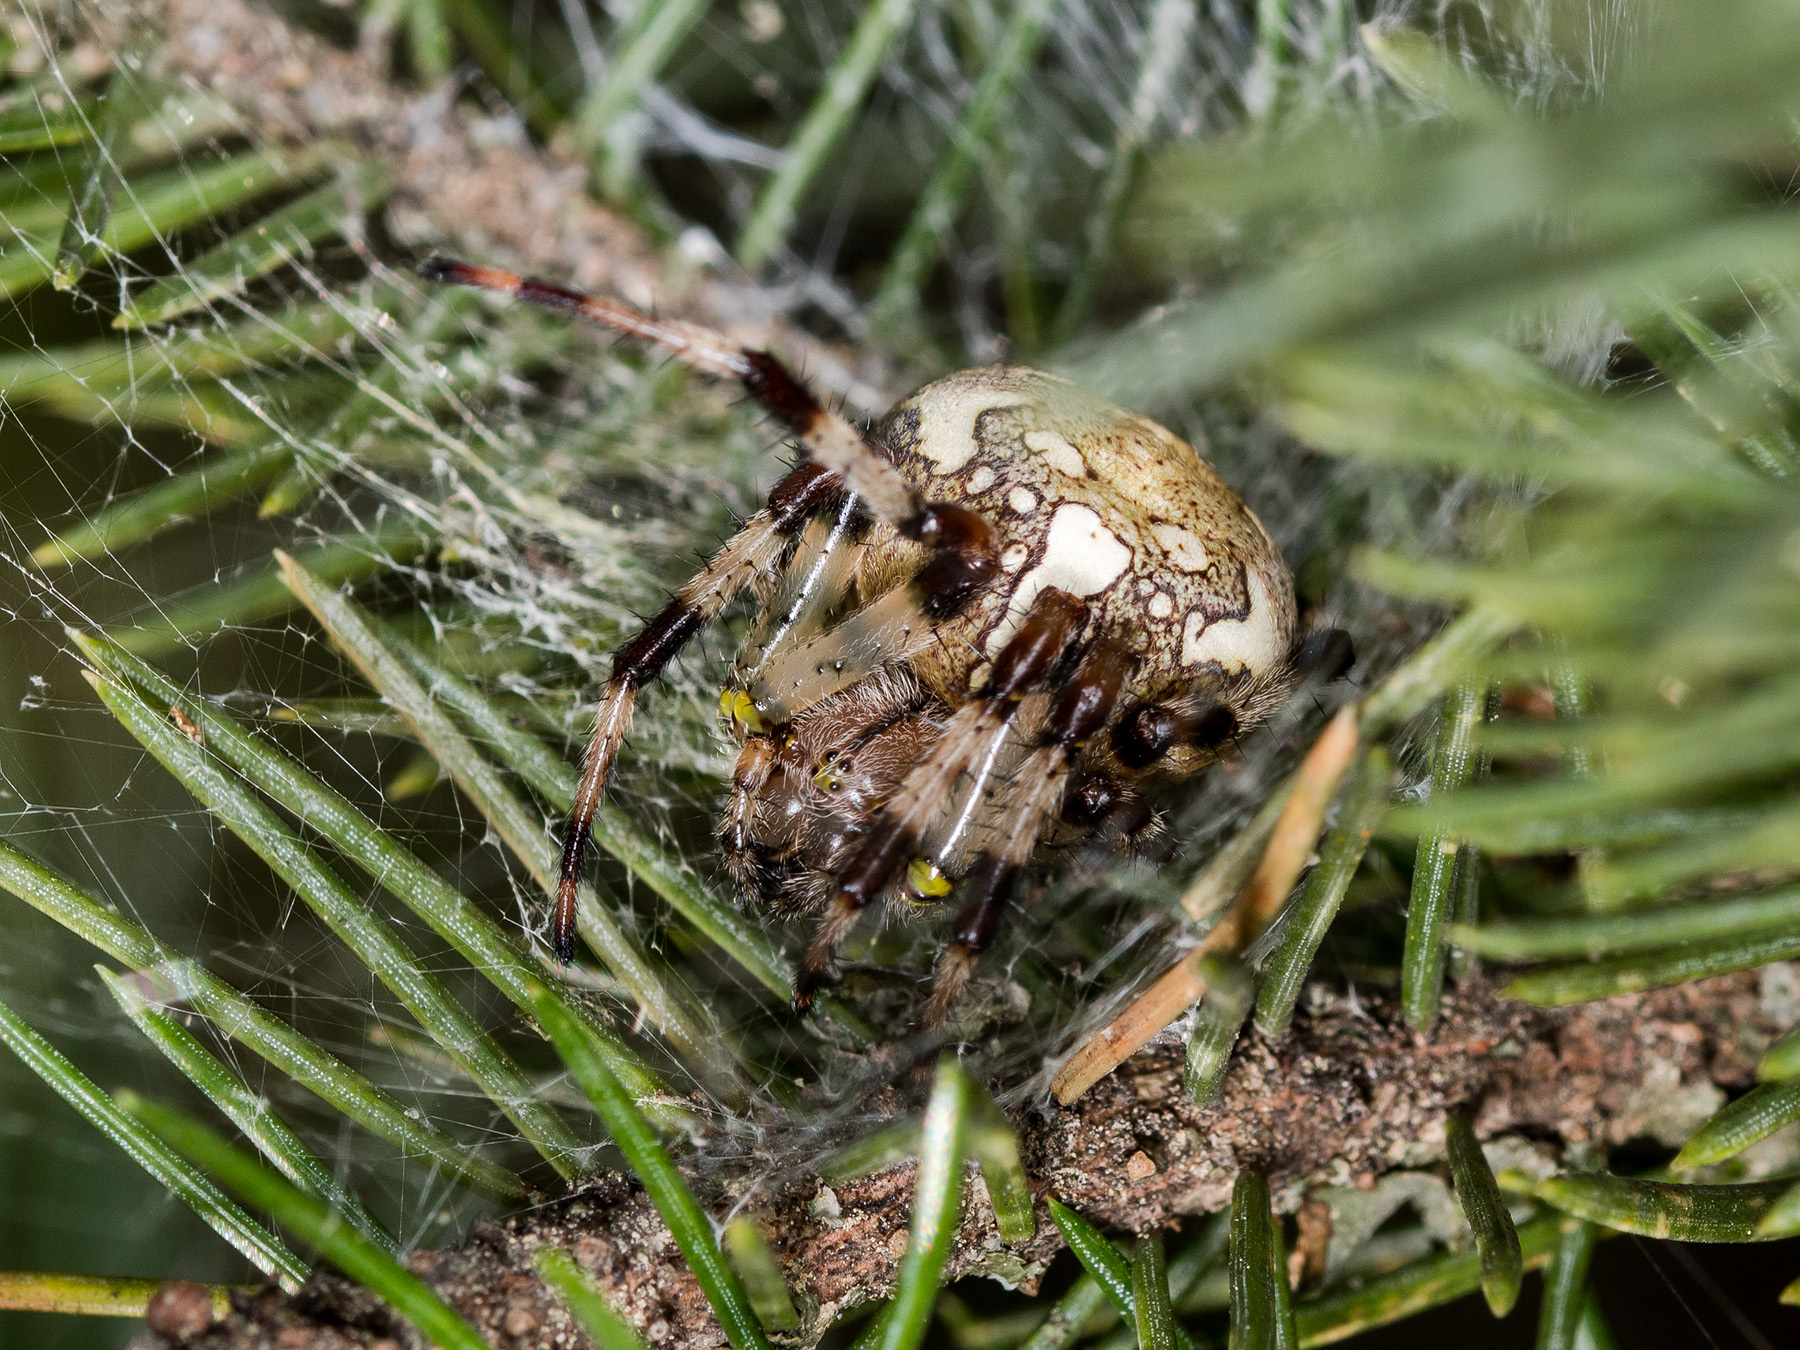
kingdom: Animalia
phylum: Arthropoda
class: Arachnida
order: Araneae
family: Araneidae
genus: Araneus
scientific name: Araneus marmoreus
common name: Marbled orbweaver
